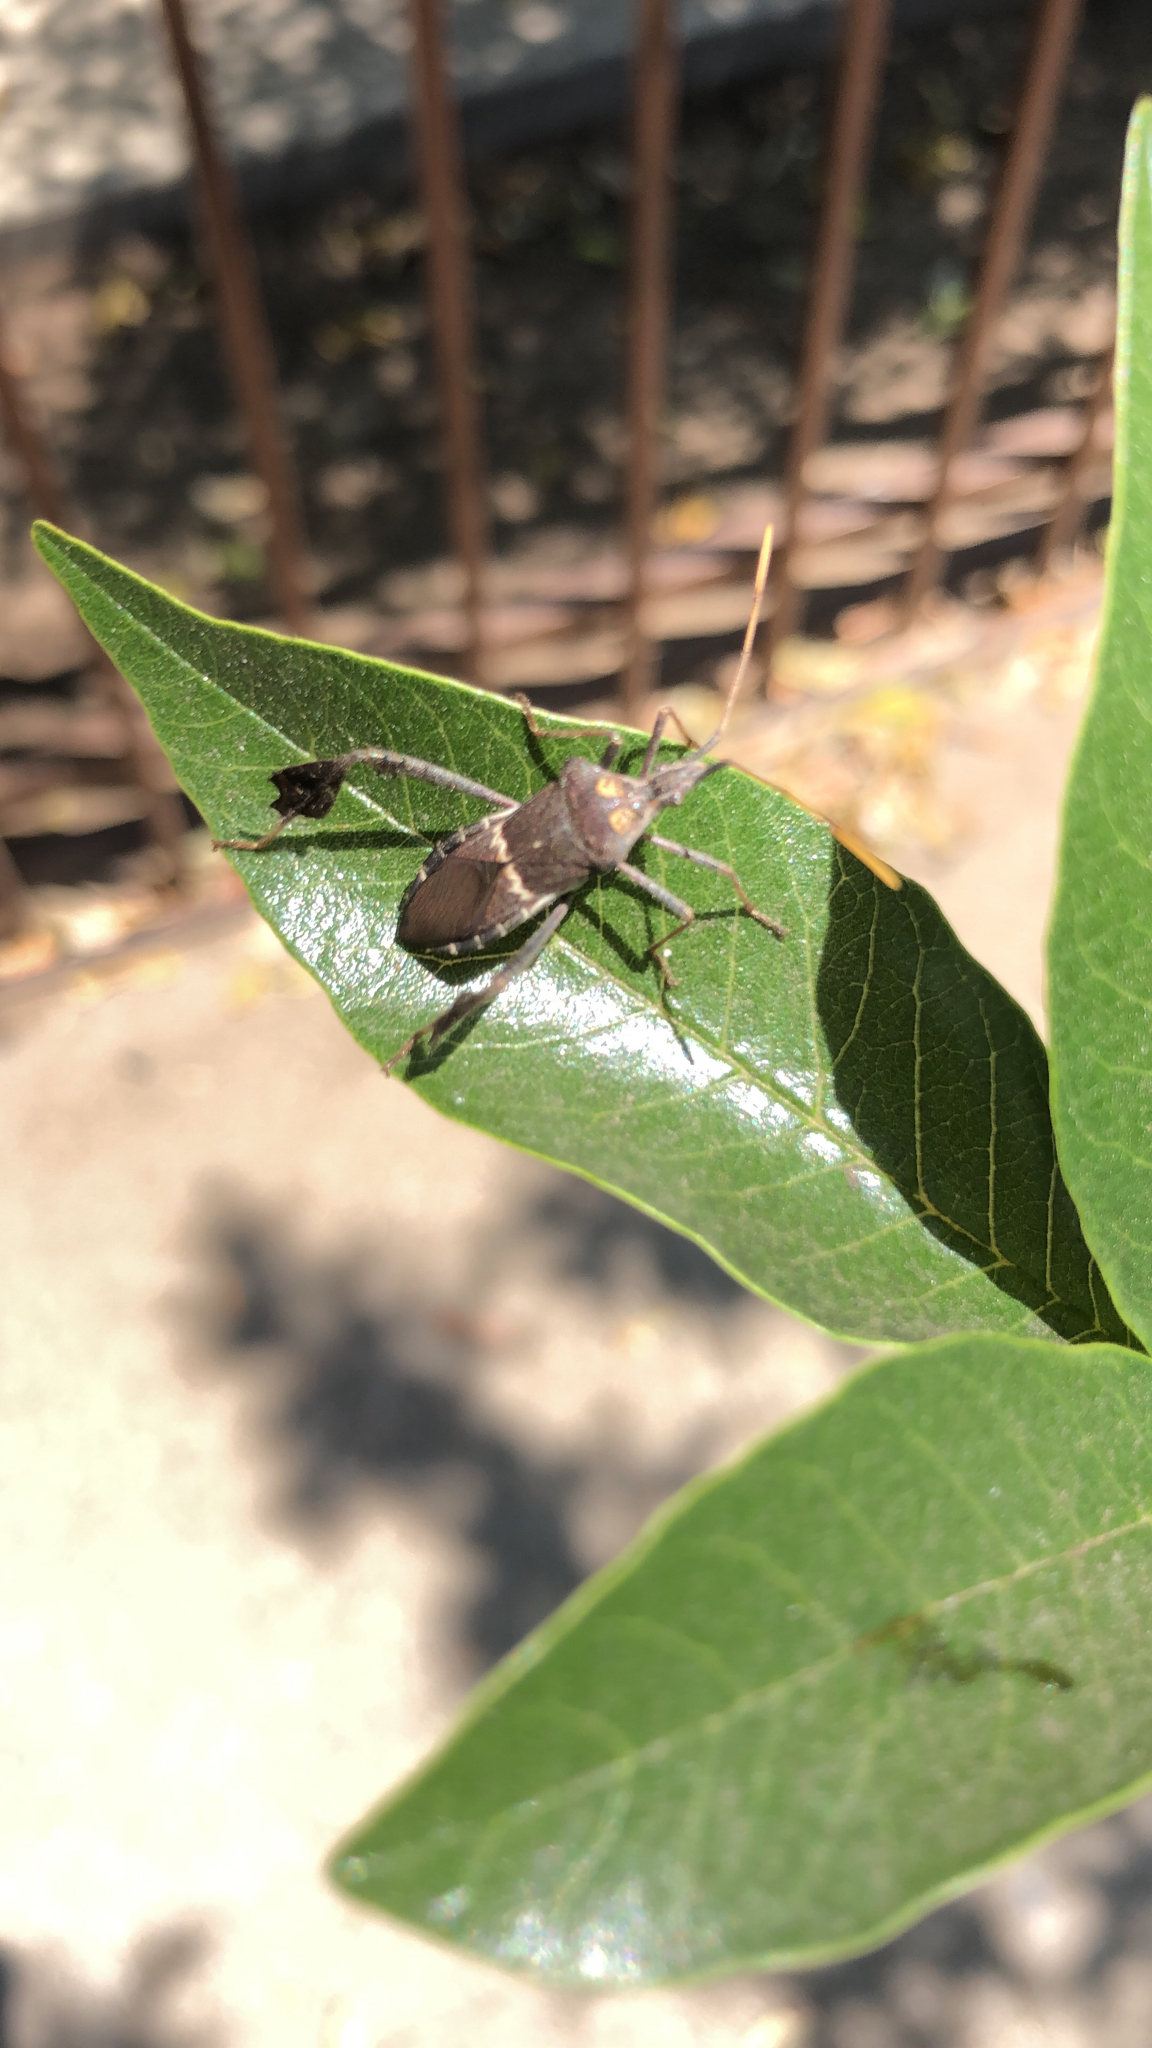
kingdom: Animalia
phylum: Arthropoda
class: Insecta
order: Hemiptera
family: Coreidae
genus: Leptoglossus
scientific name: Leptoglossus zonatus
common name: Large-legged bug
